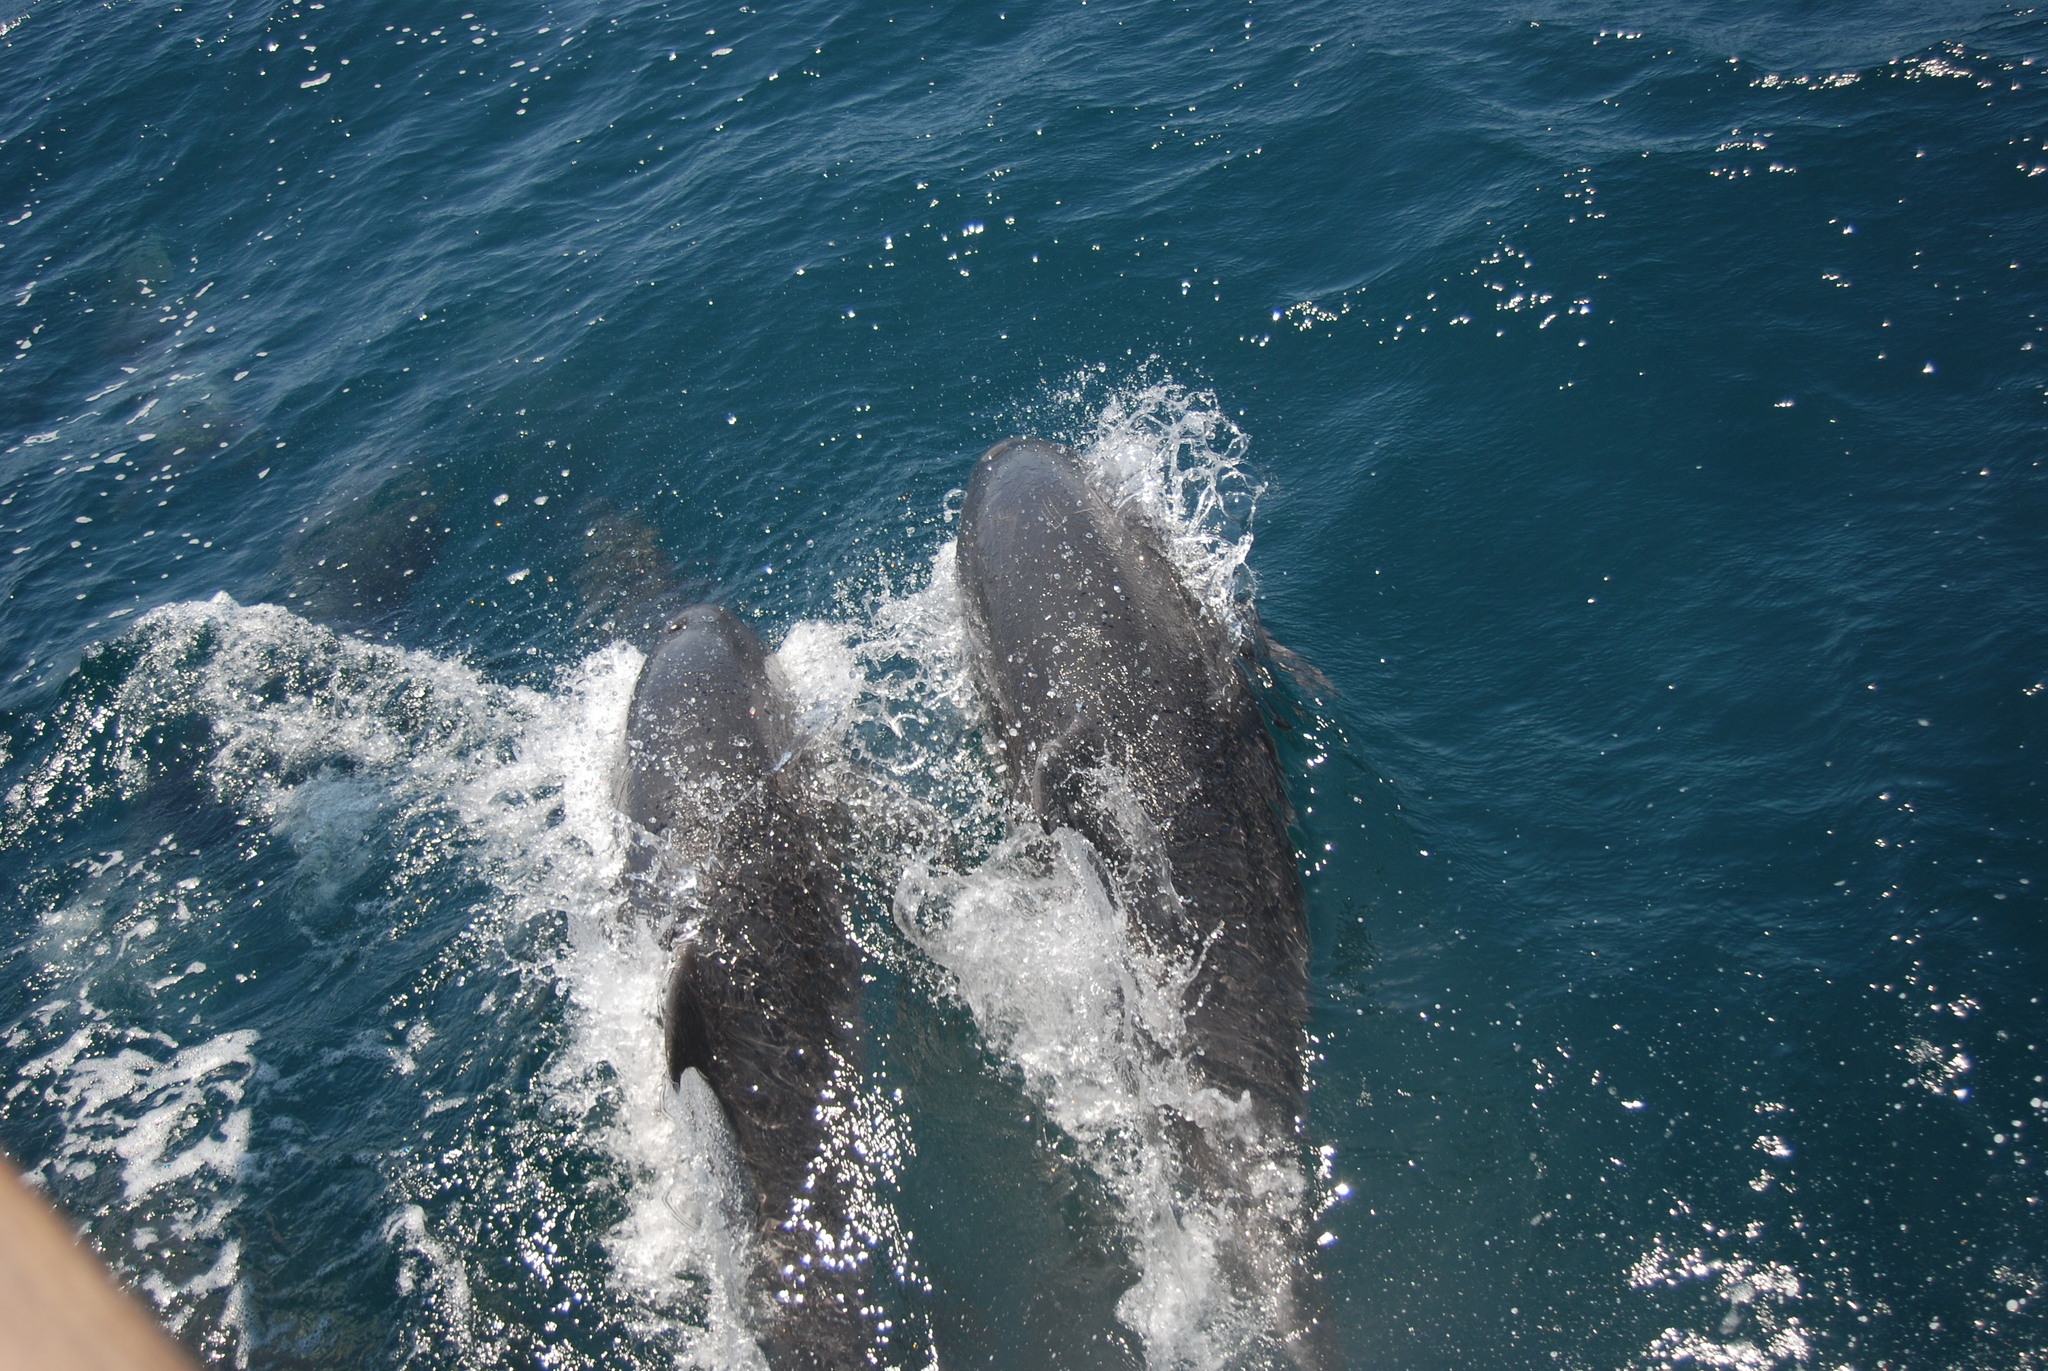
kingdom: Animalia
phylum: Chordata
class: Mammalia
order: Cetacea
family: Delphinidae
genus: Tursiops
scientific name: Tursiops truncatus
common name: Bottlenose dolphin
